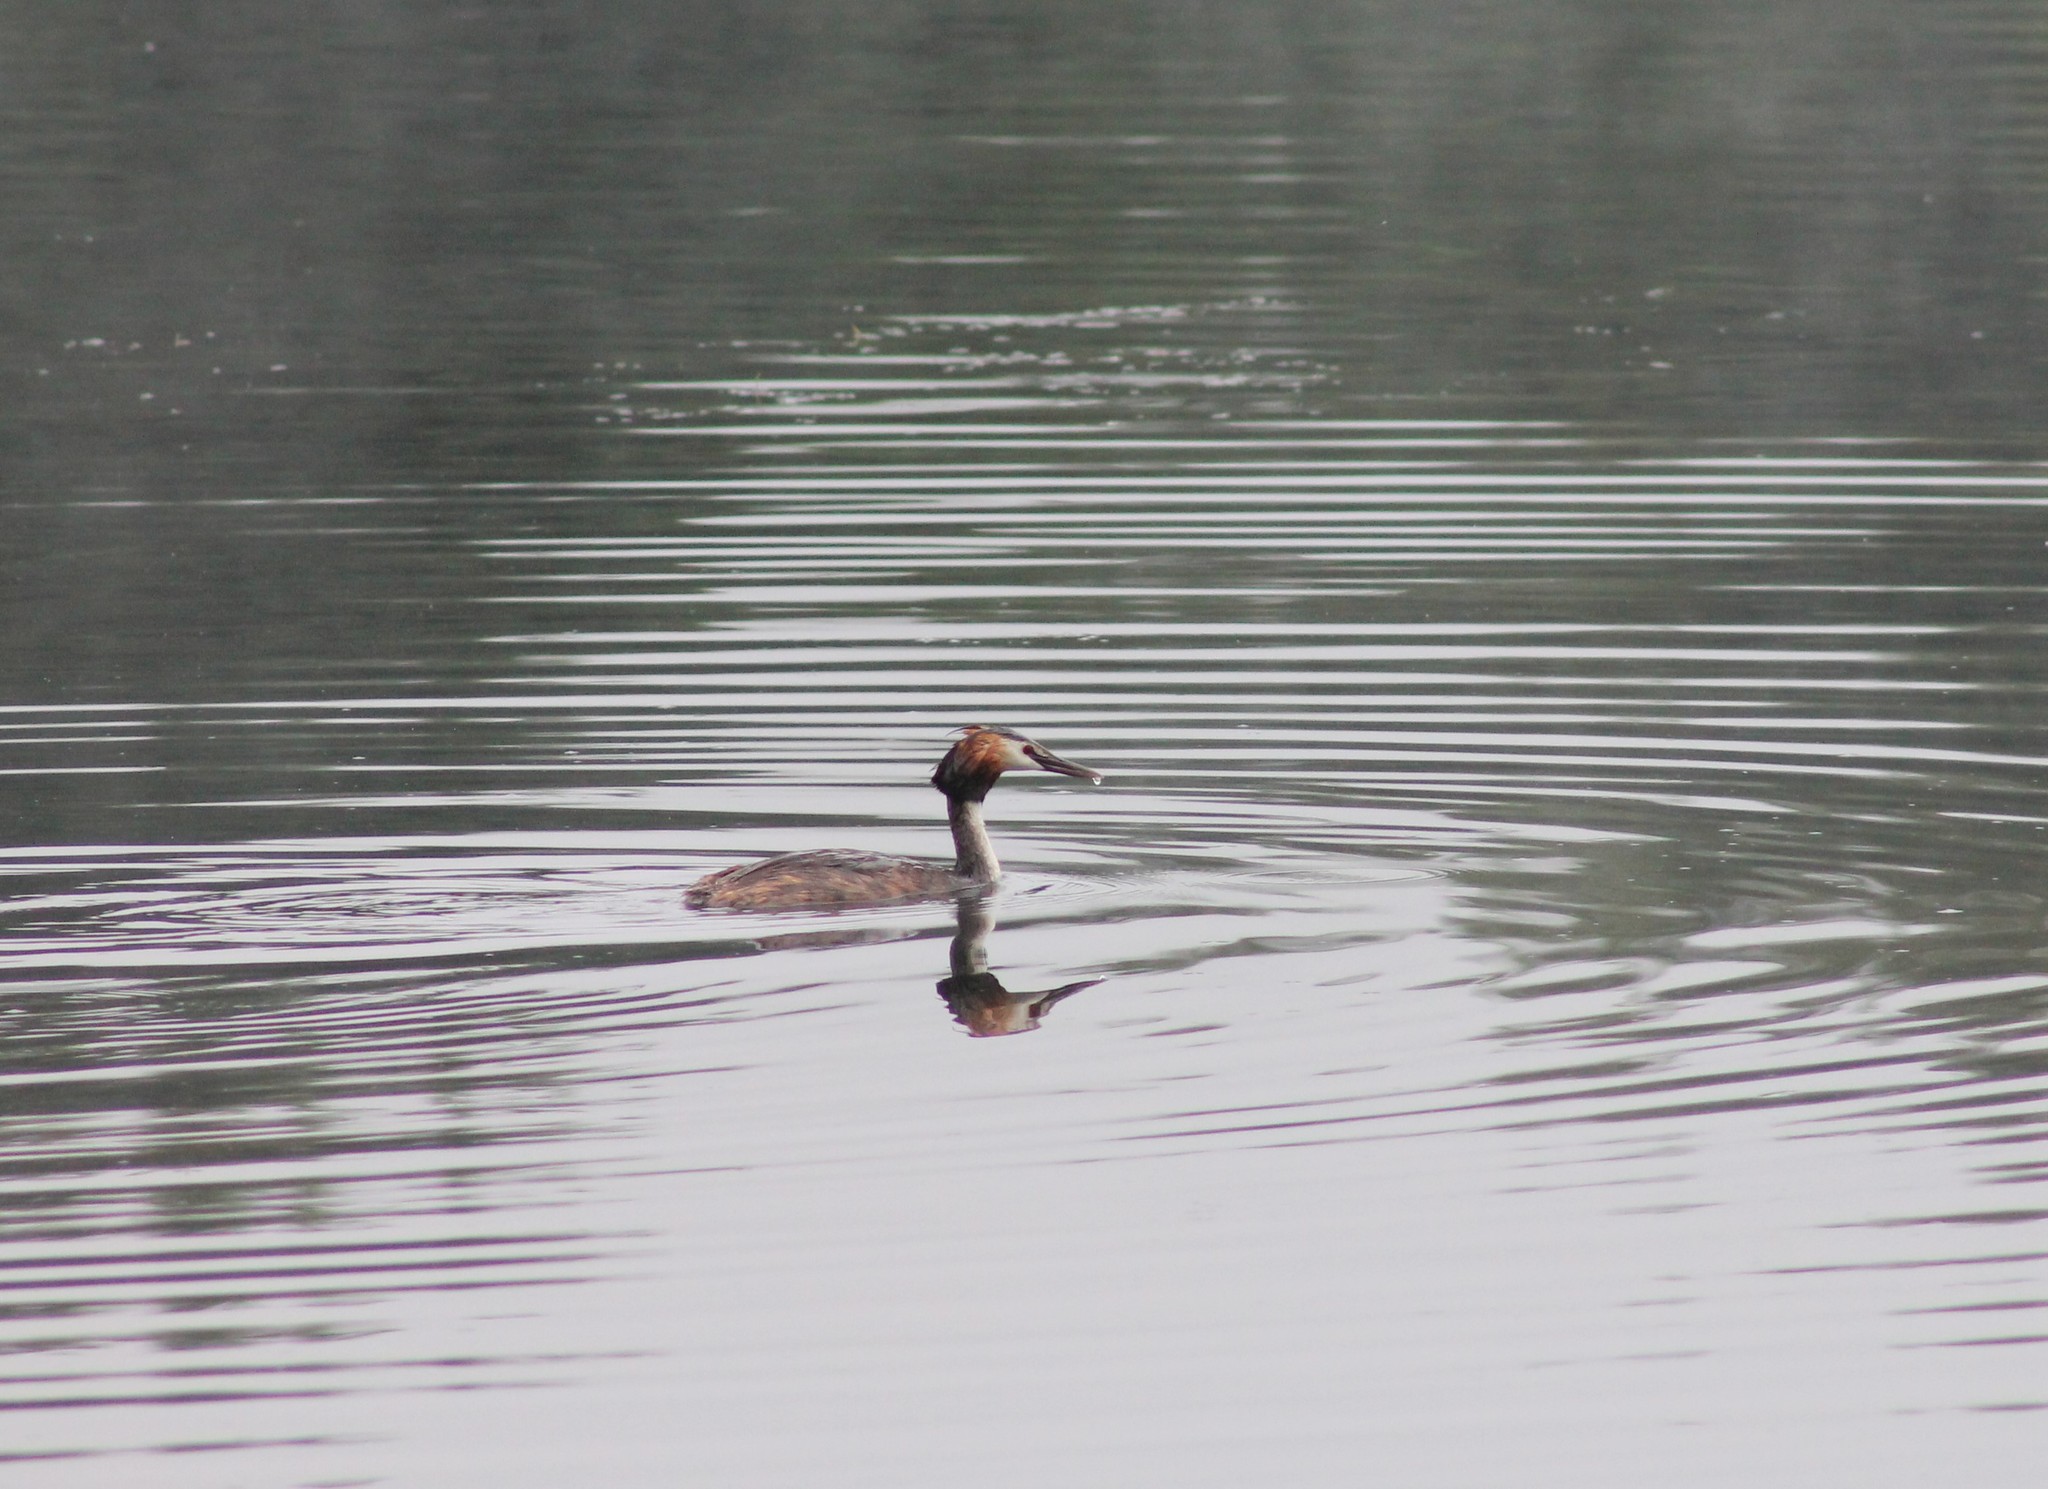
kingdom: Animalia
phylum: Chordata
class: Aves
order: Podicipediformes
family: Podicipedidae
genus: Podiceps
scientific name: Podiceps cristatus
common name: Great crested grebe
